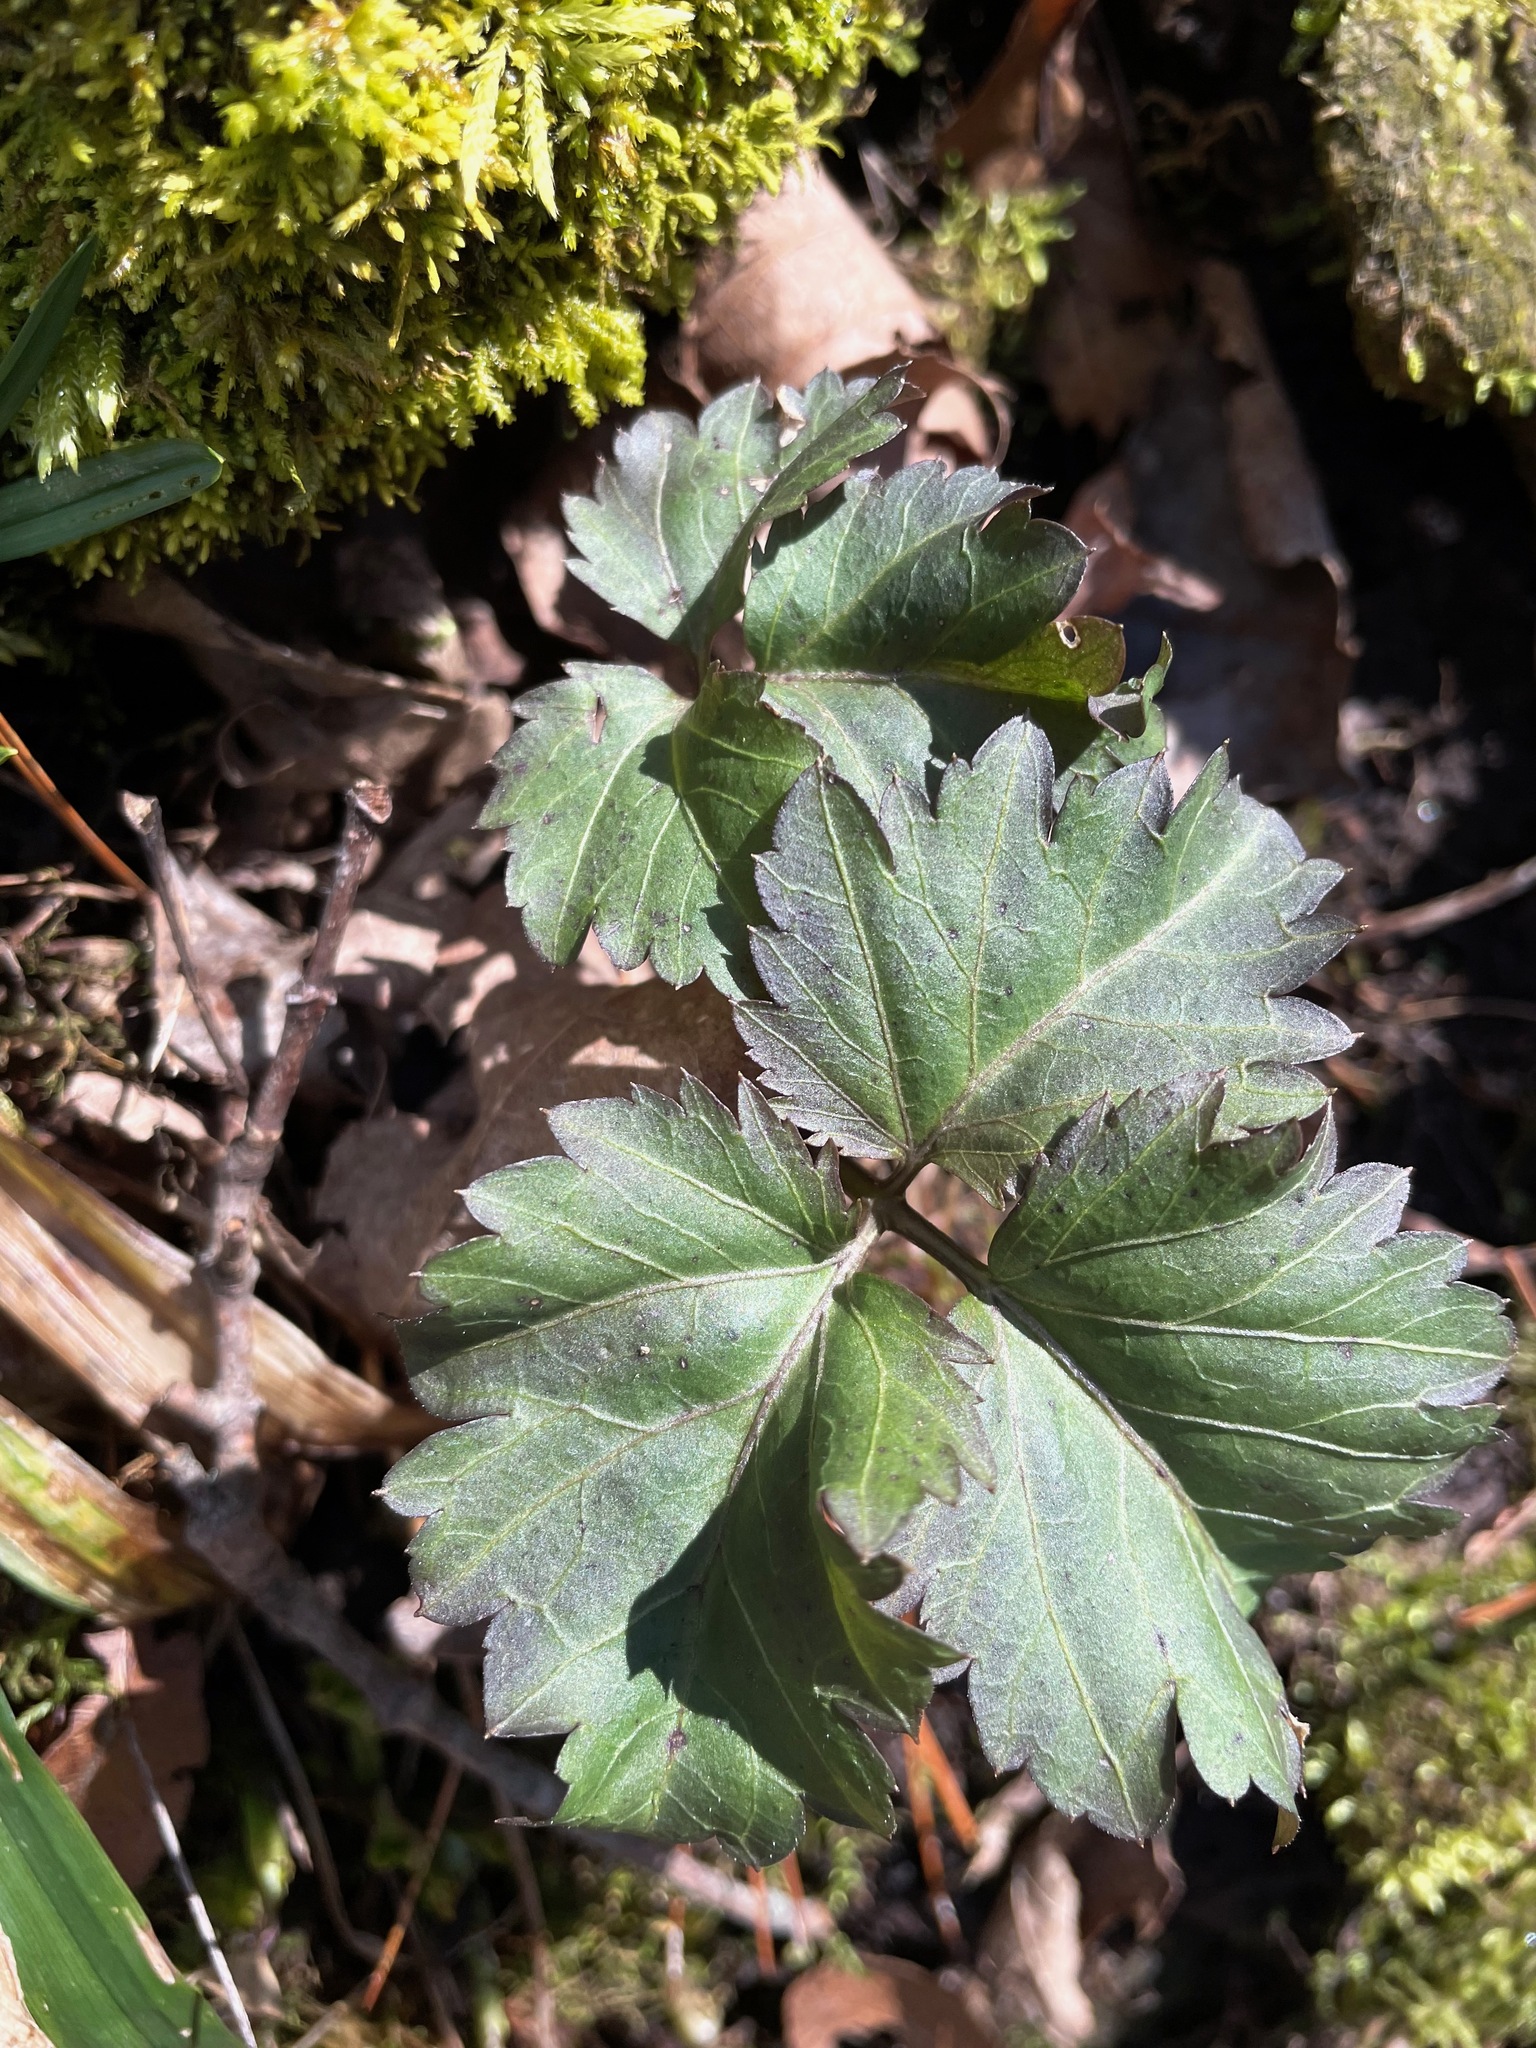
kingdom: Plantae
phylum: Tracheophyta
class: Magnoliopsida
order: Brassicales
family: Brassicaceae
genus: Cardamine
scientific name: Cardamine diphylla
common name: Broad-leaved toothwort
